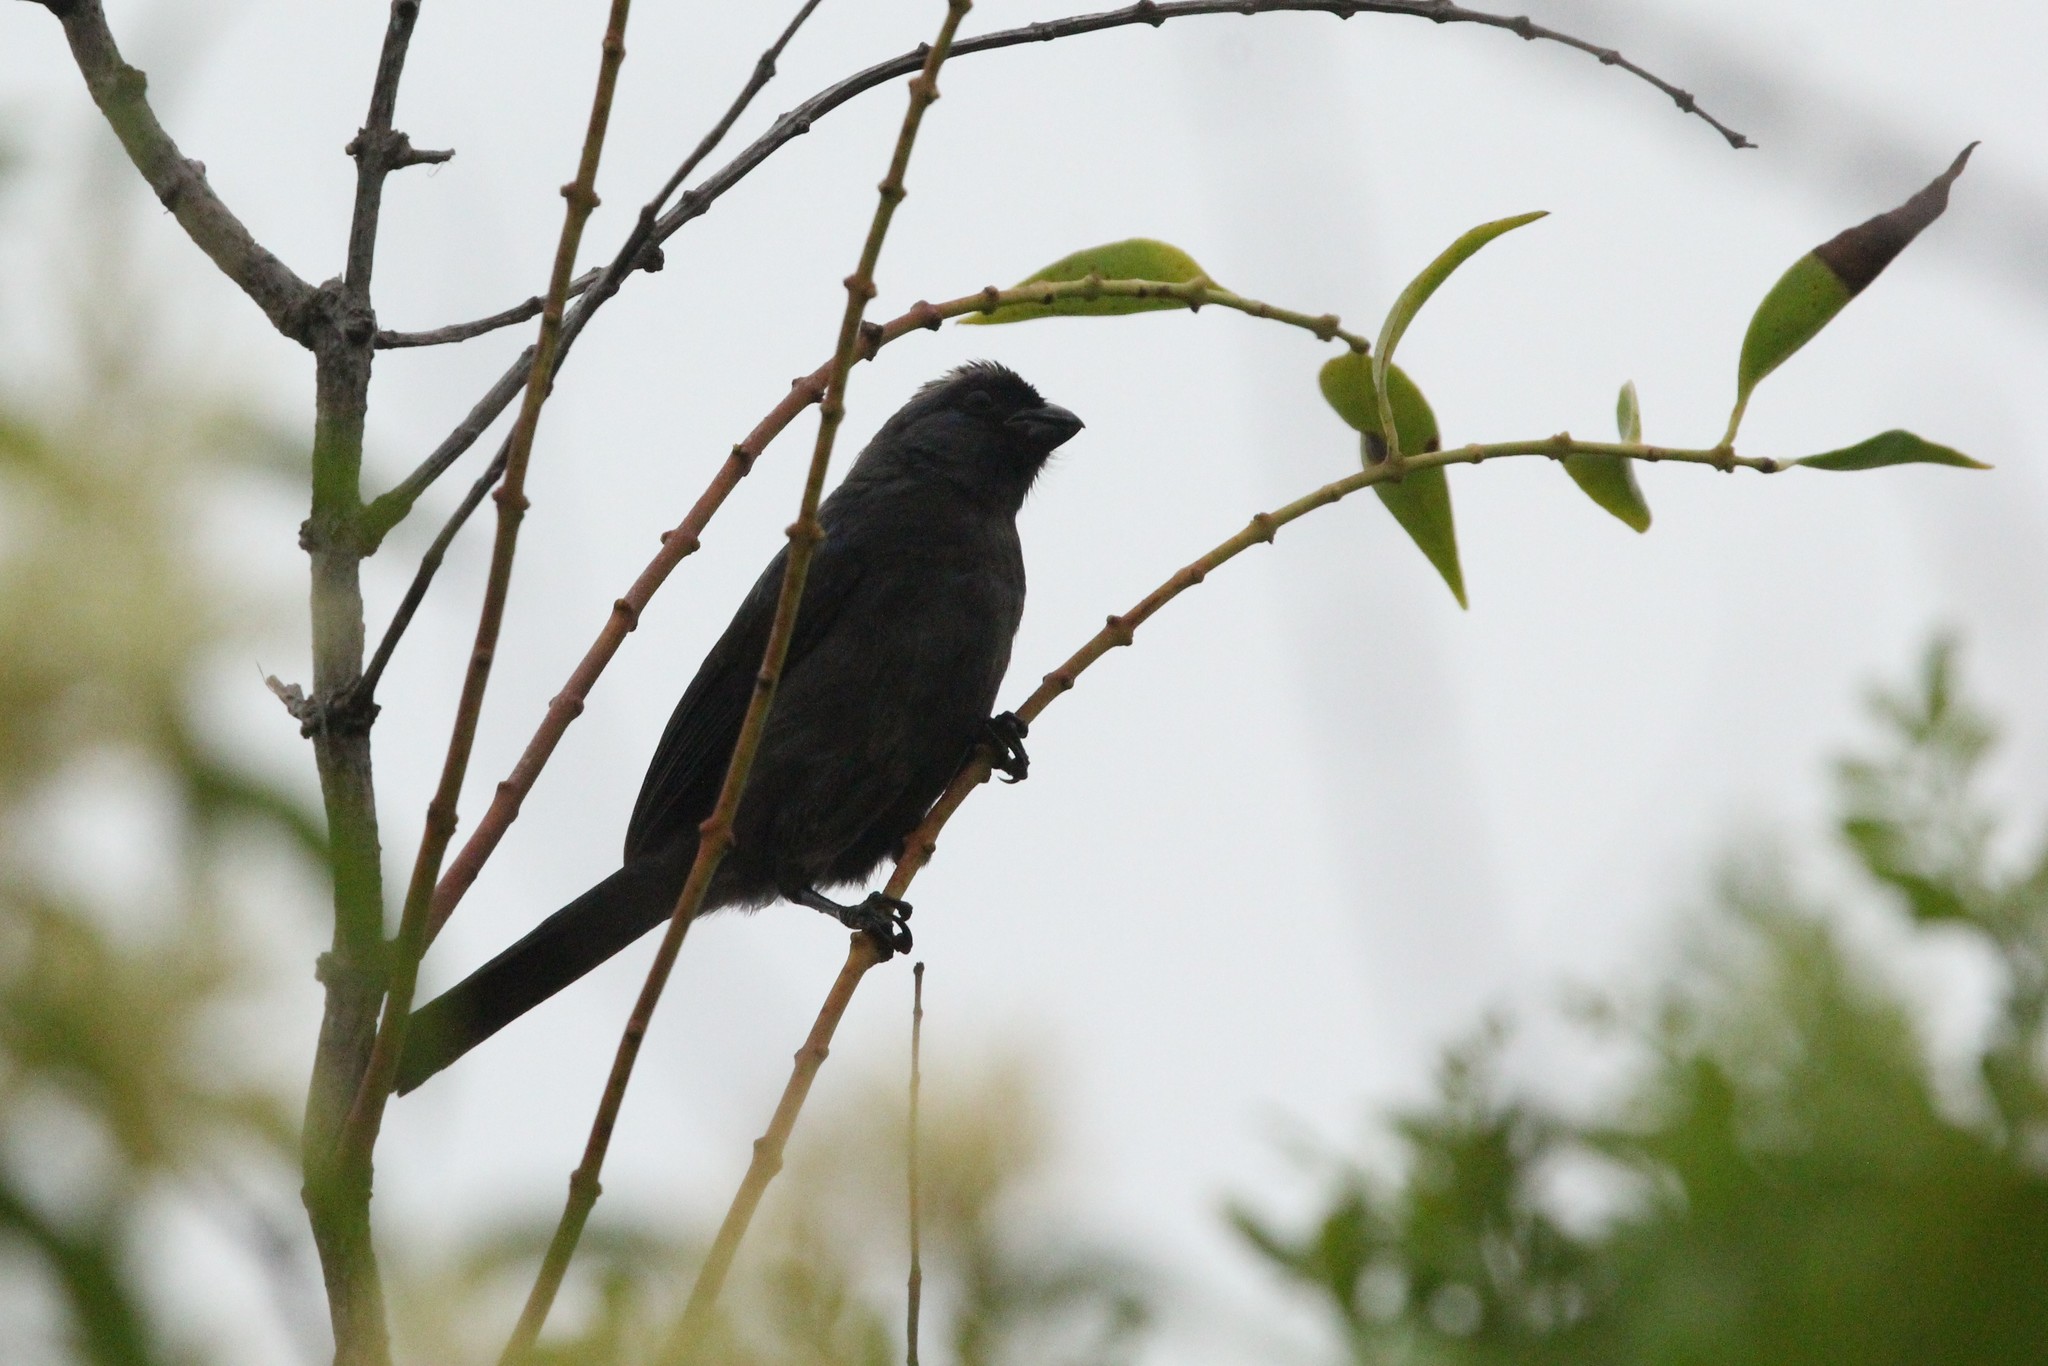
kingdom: Animalia
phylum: Chordata
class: Aves
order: Passeriformes
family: Thraupidae
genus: Stephanophorus
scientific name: Stephanophorus diadematus
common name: Diademed tanager
